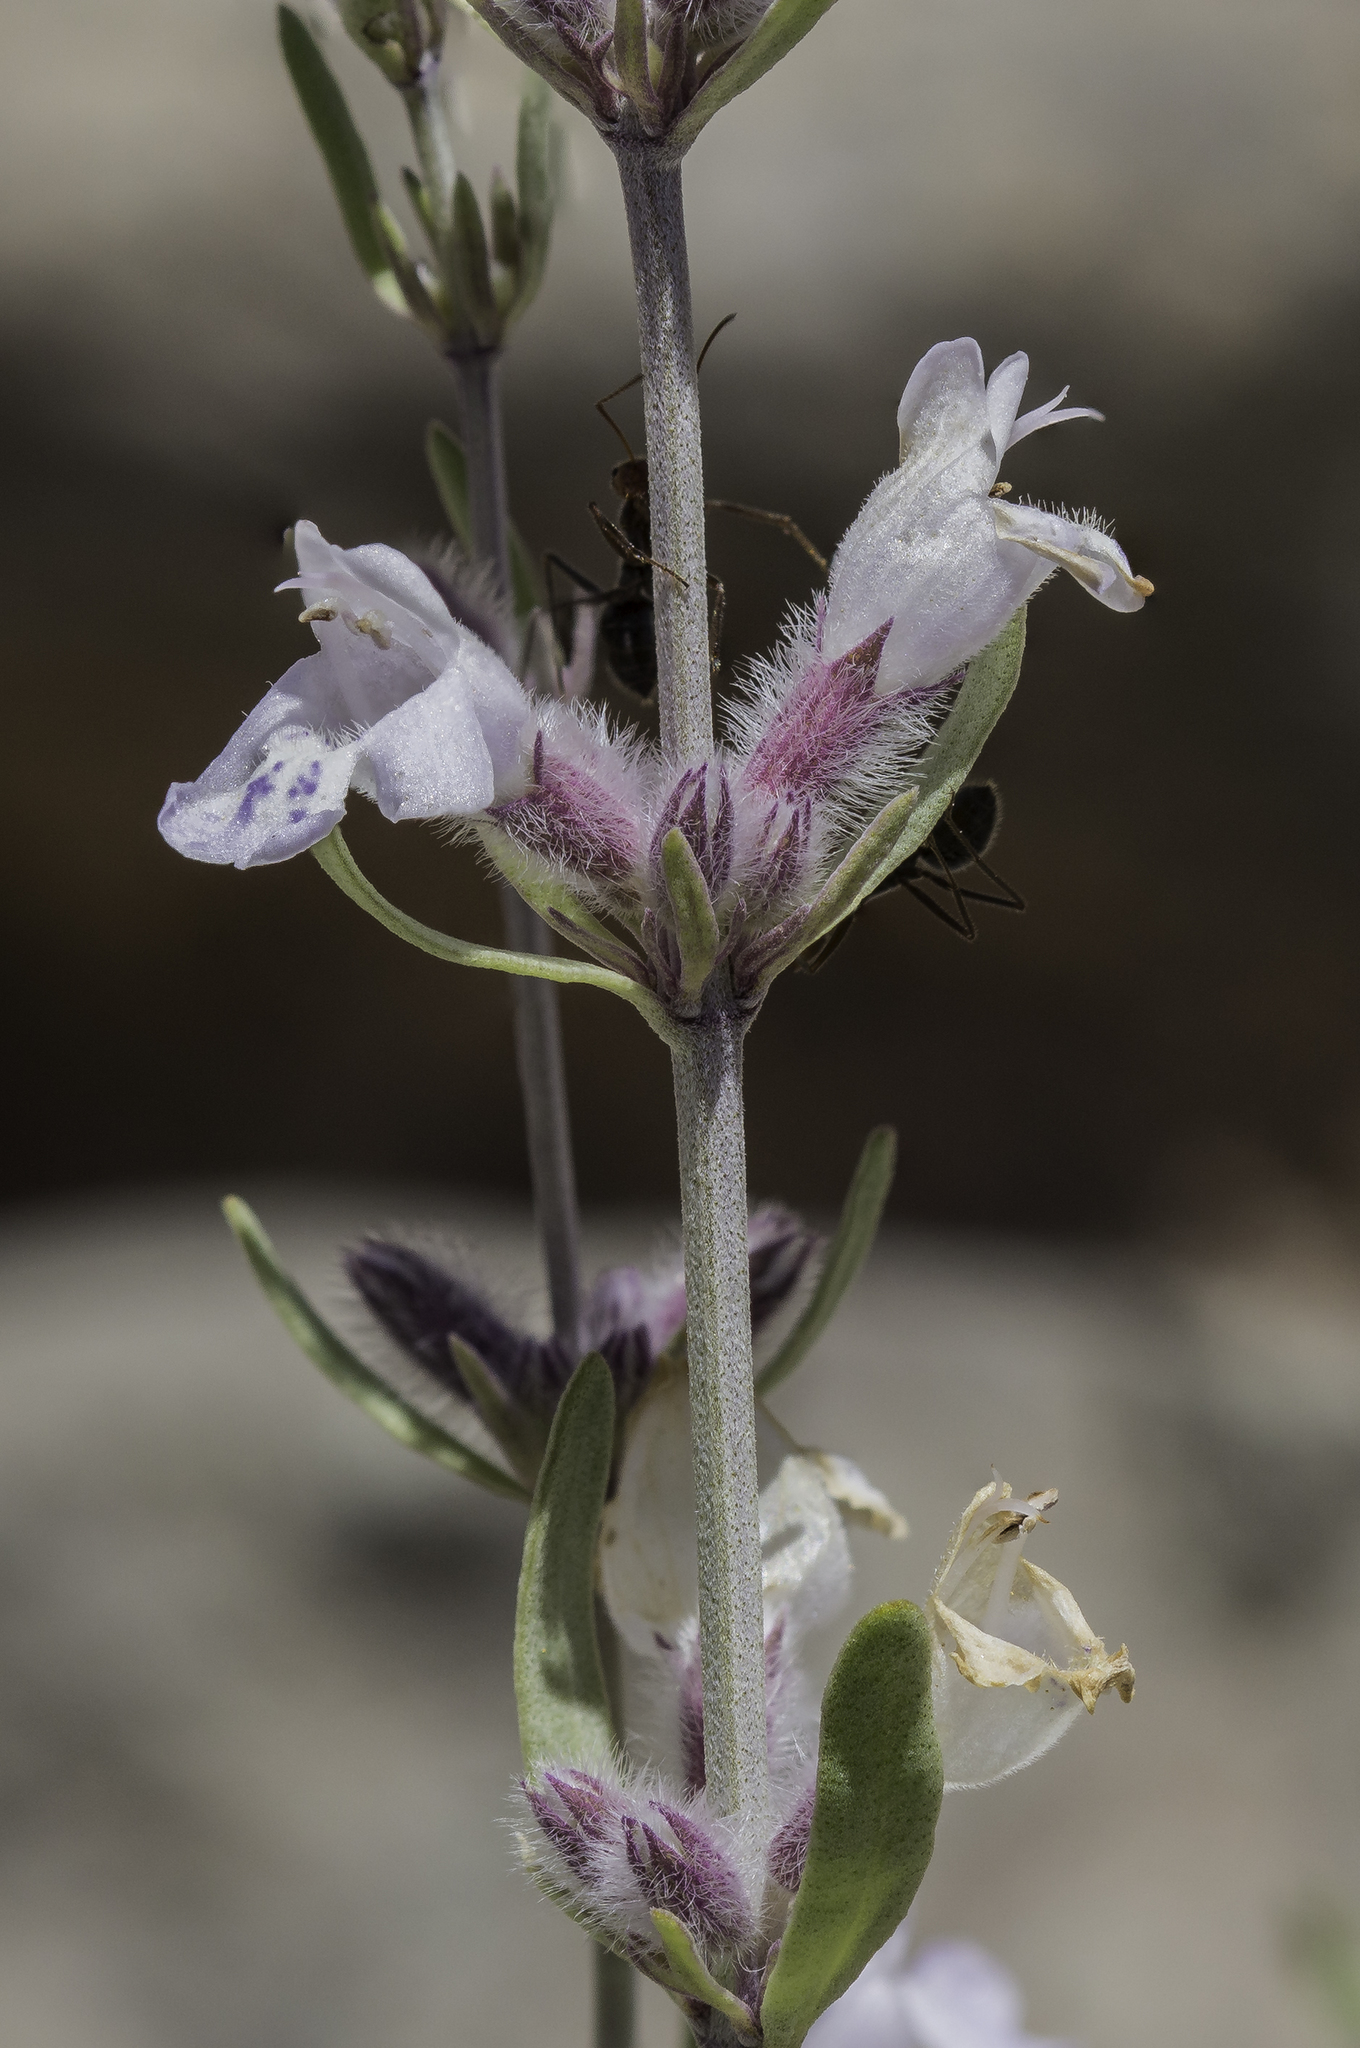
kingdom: Plantae
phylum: Tracheophyta
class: Magnoliopsida
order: Lamiales
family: Lamiaceae
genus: Poliomintha
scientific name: Poliomintha incana
